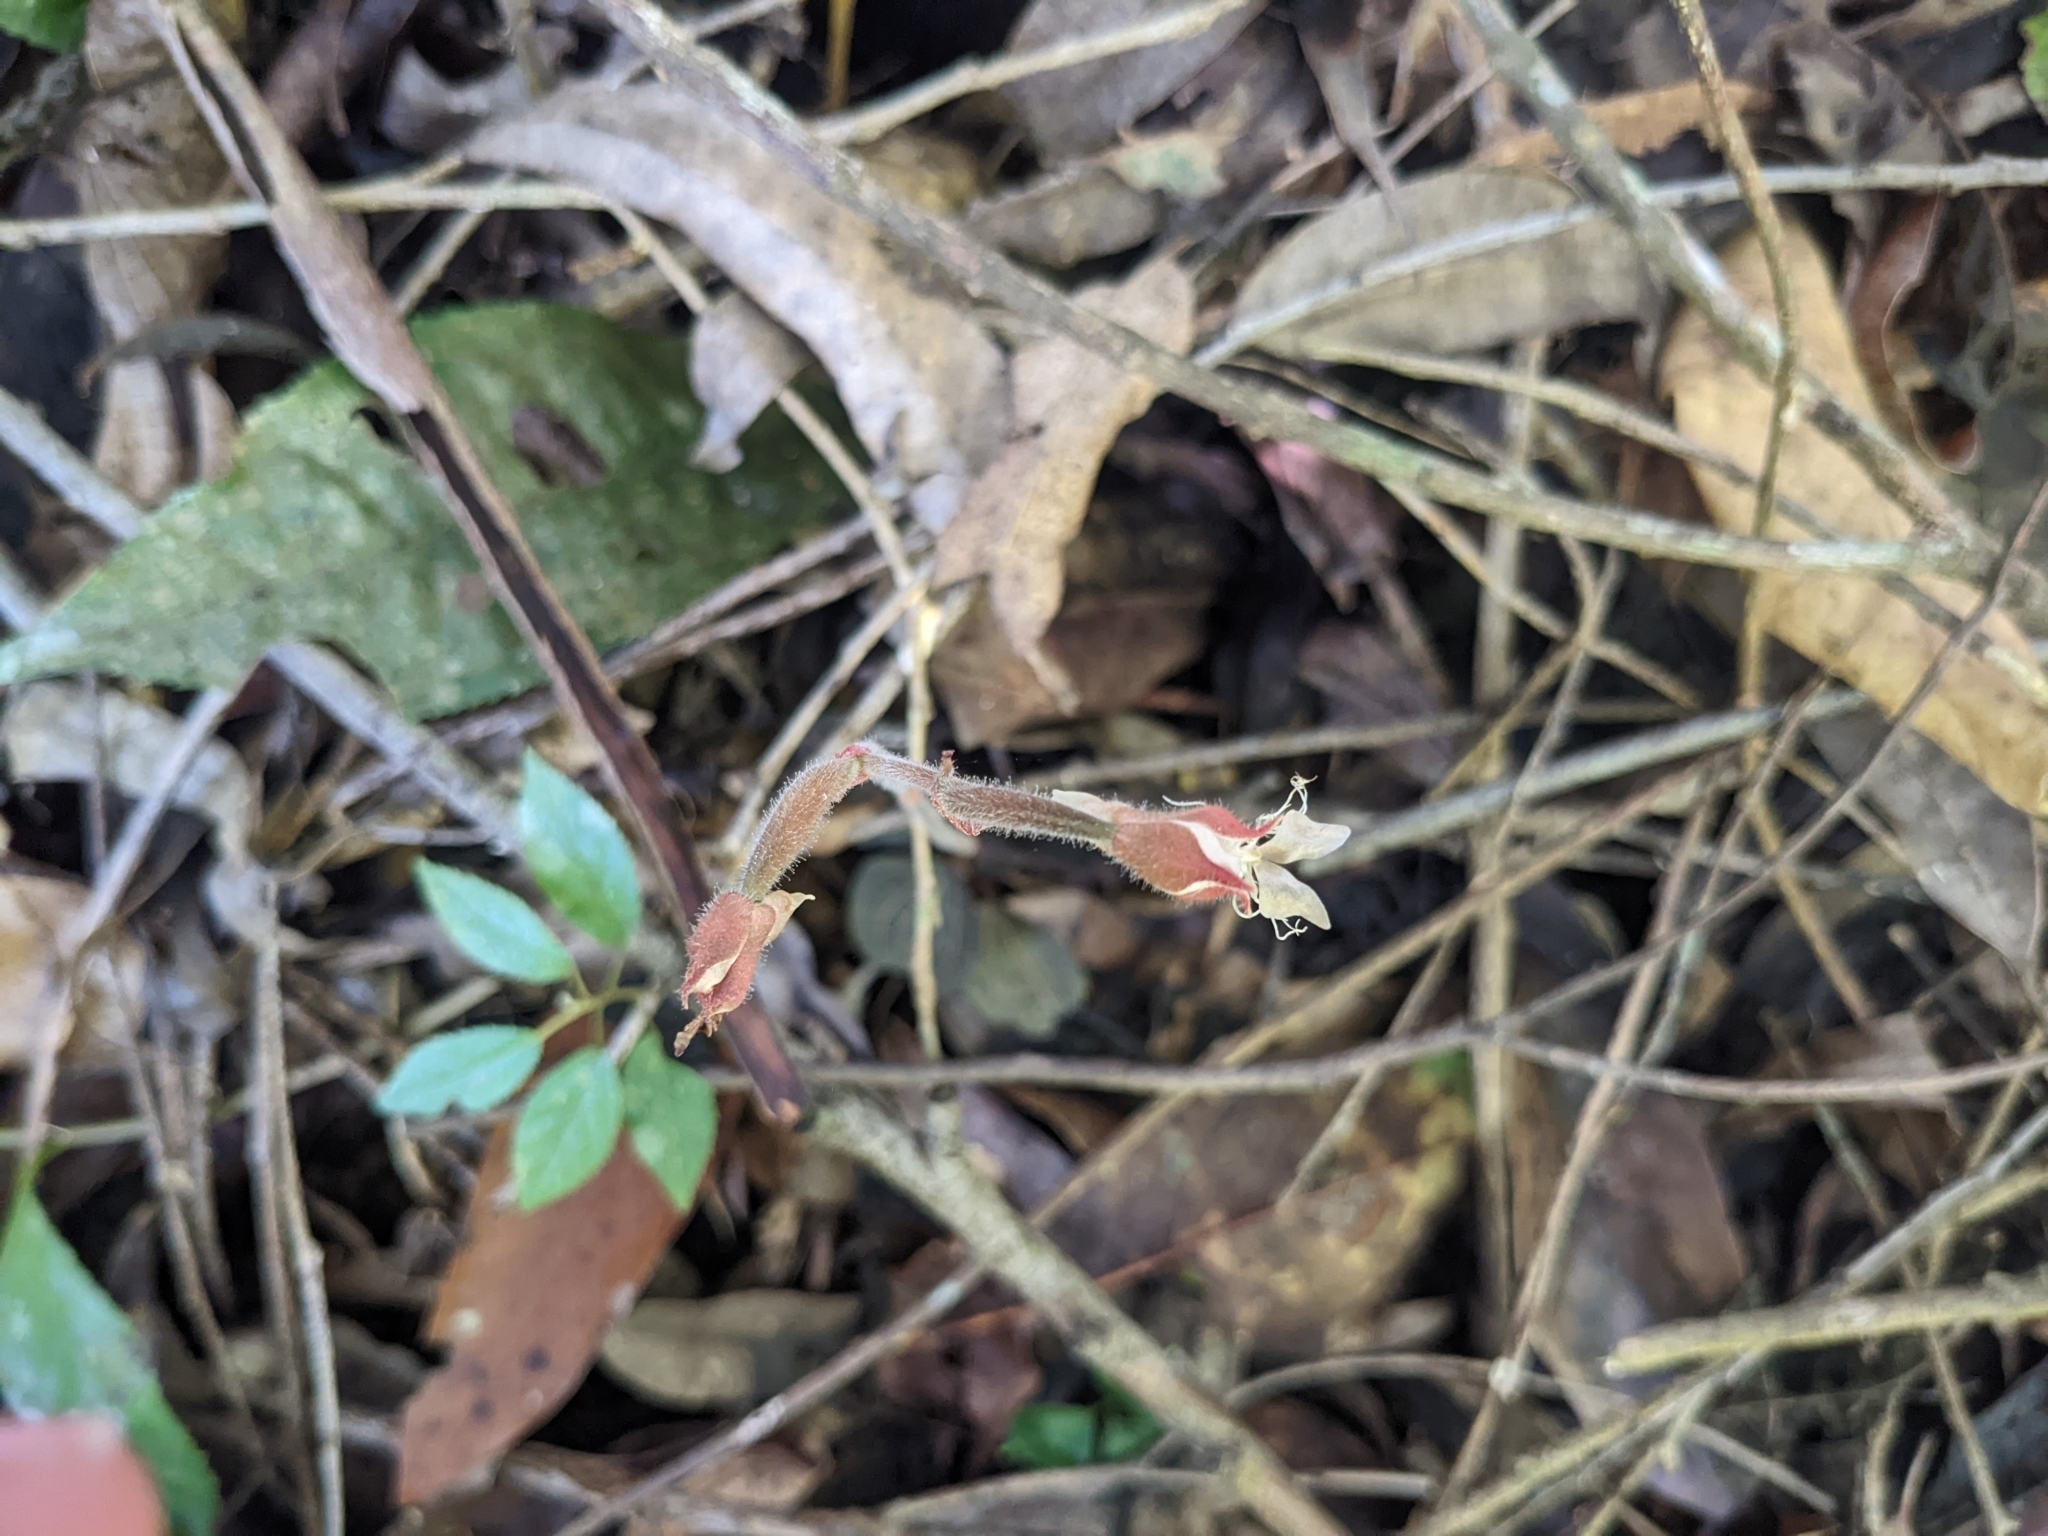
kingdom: Plantae
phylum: Tracheophyta
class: Liliopsida
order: Asparagales
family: Orchidaceae
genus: Anoectochilus
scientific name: Anoectochilus elatus
